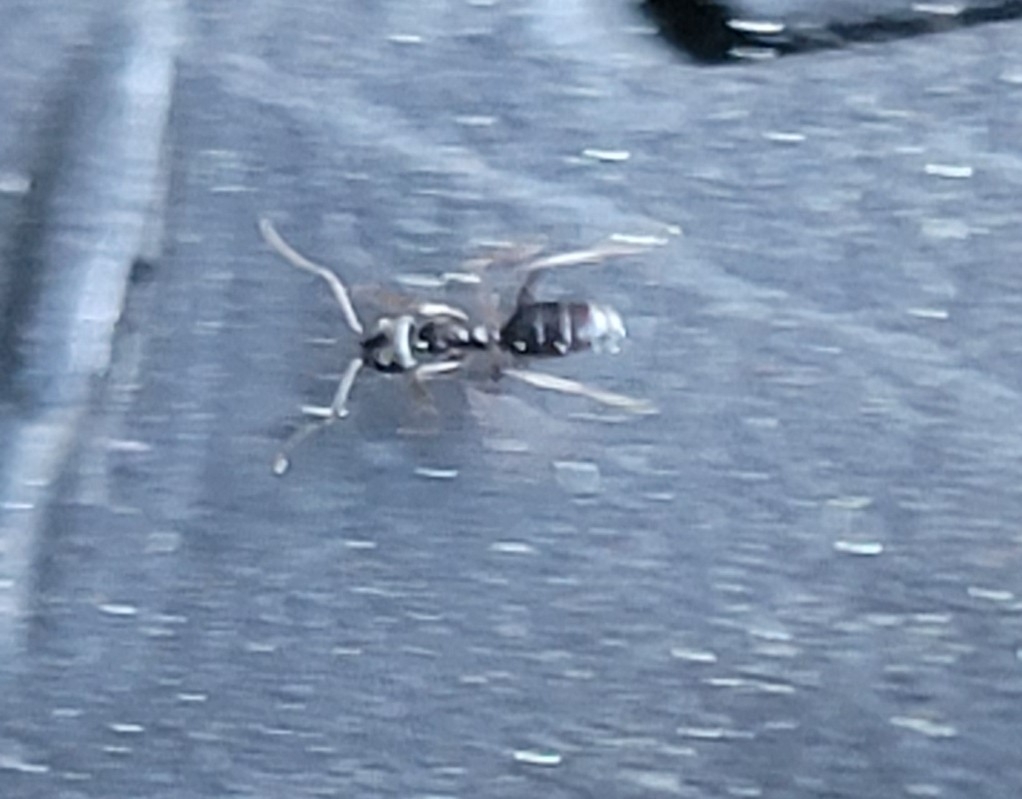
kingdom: Animalia
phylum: Arthropoda
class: Insecta
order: Hymenoptera
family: Formicidae
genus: Tapinoma
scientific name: Tapinoma sessile
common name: Odorous house ant
